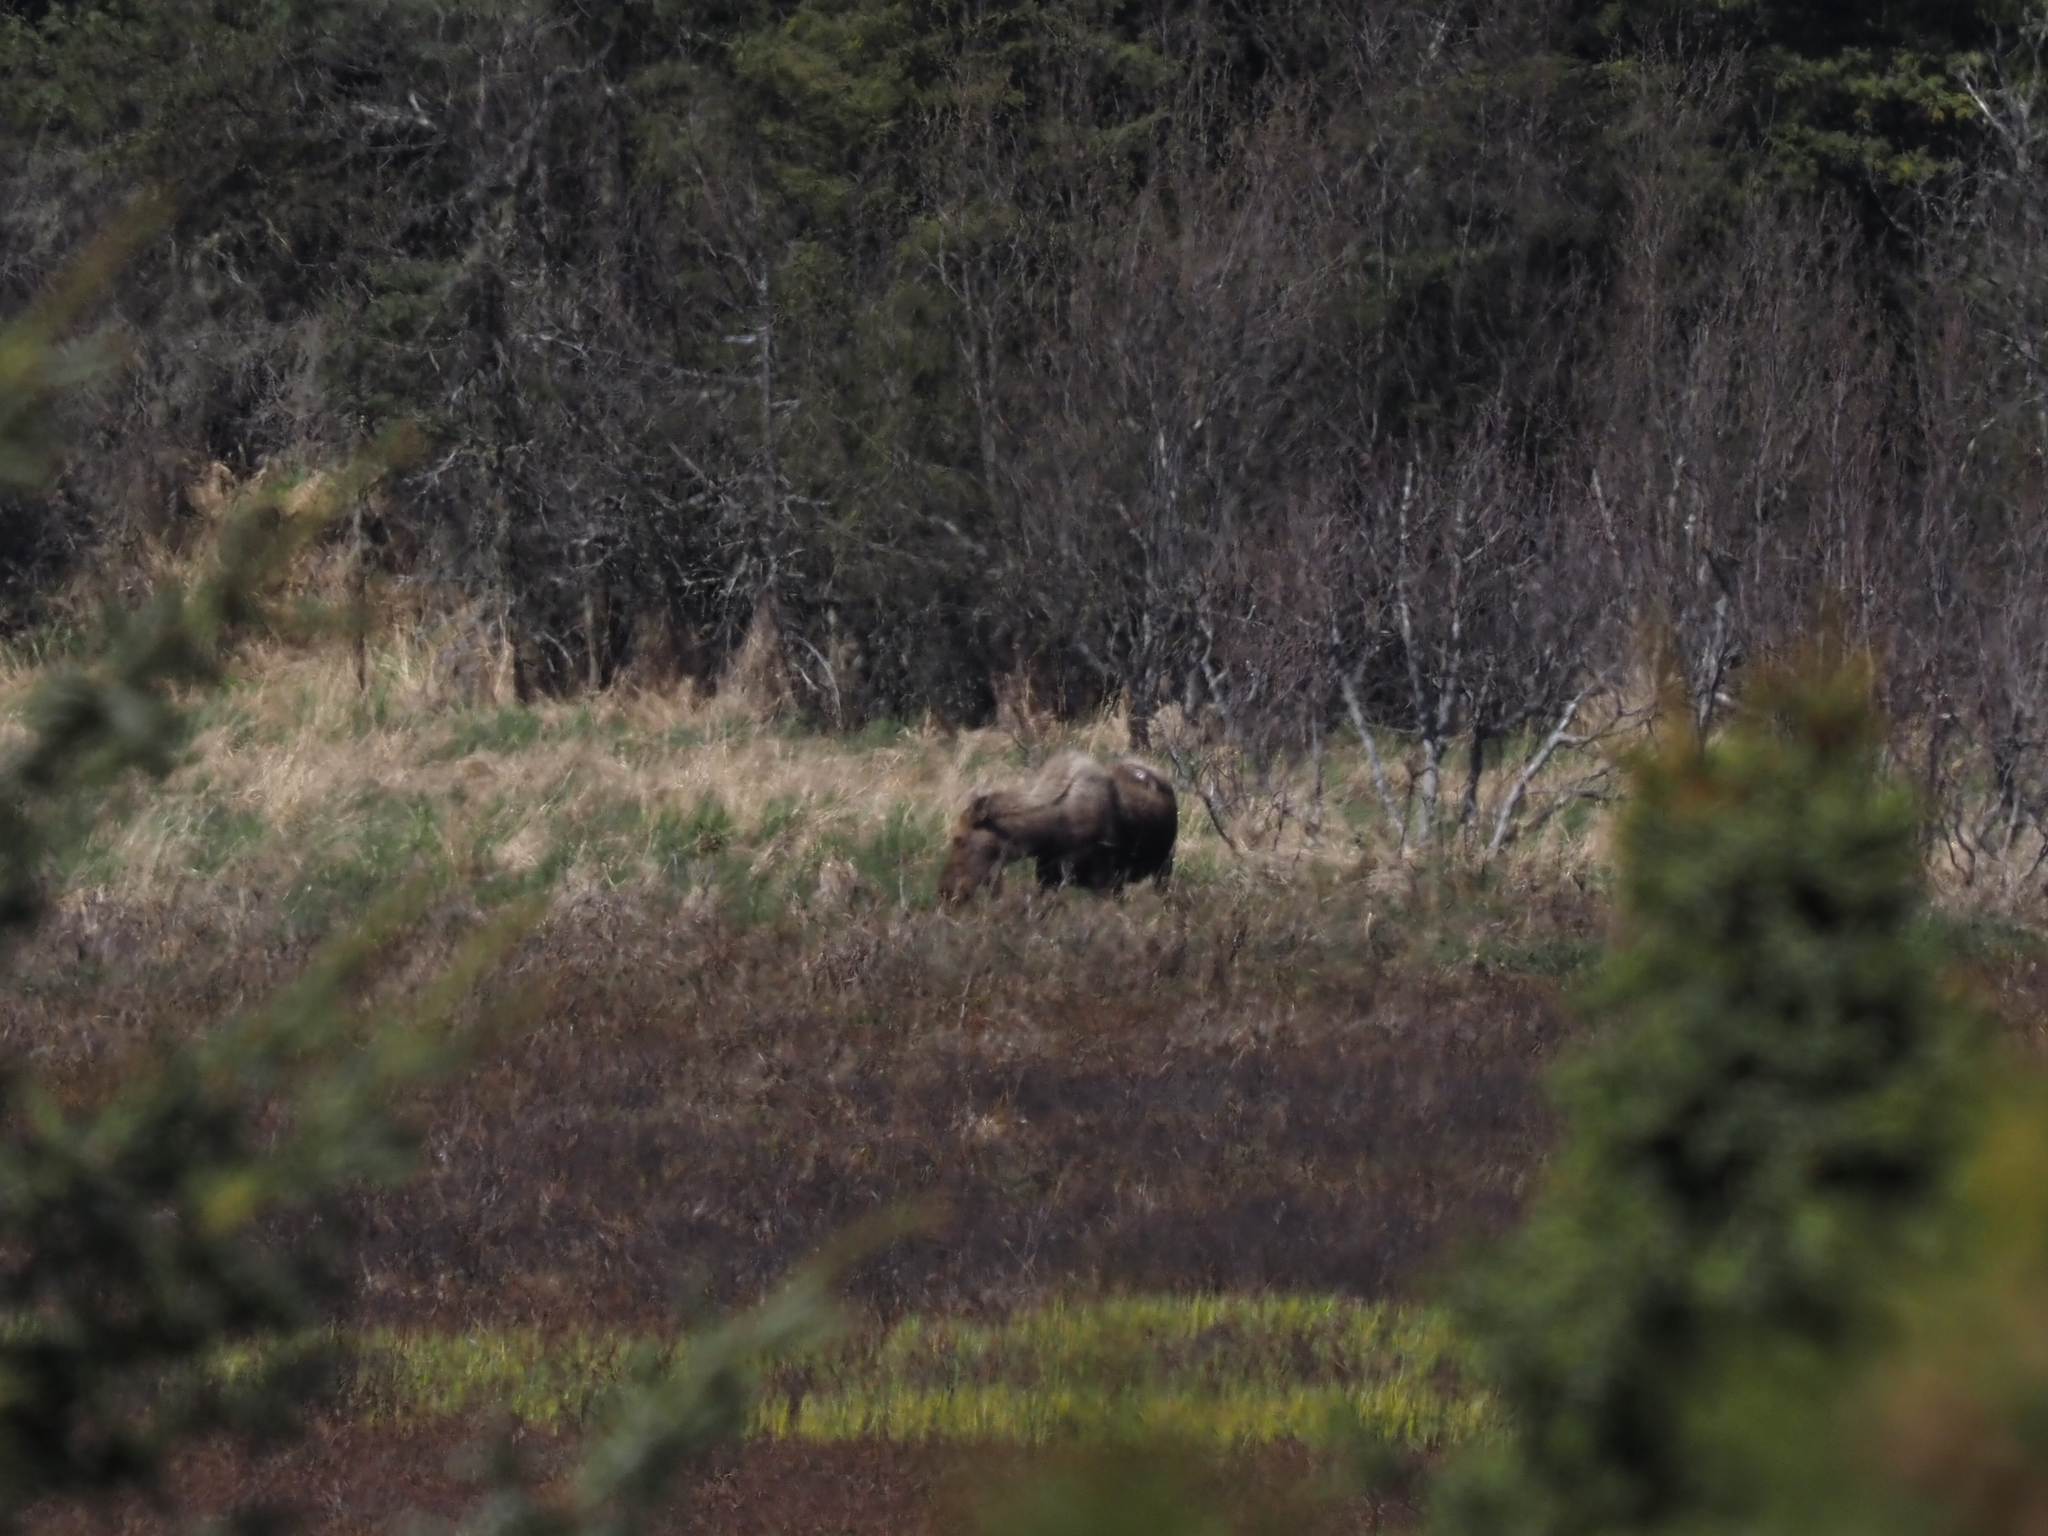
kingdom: Animalia
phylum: Chordata
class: Mammalia
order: Artiodactyla
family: Cervidae
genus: Alces
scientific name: Alces alces
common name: Moose
